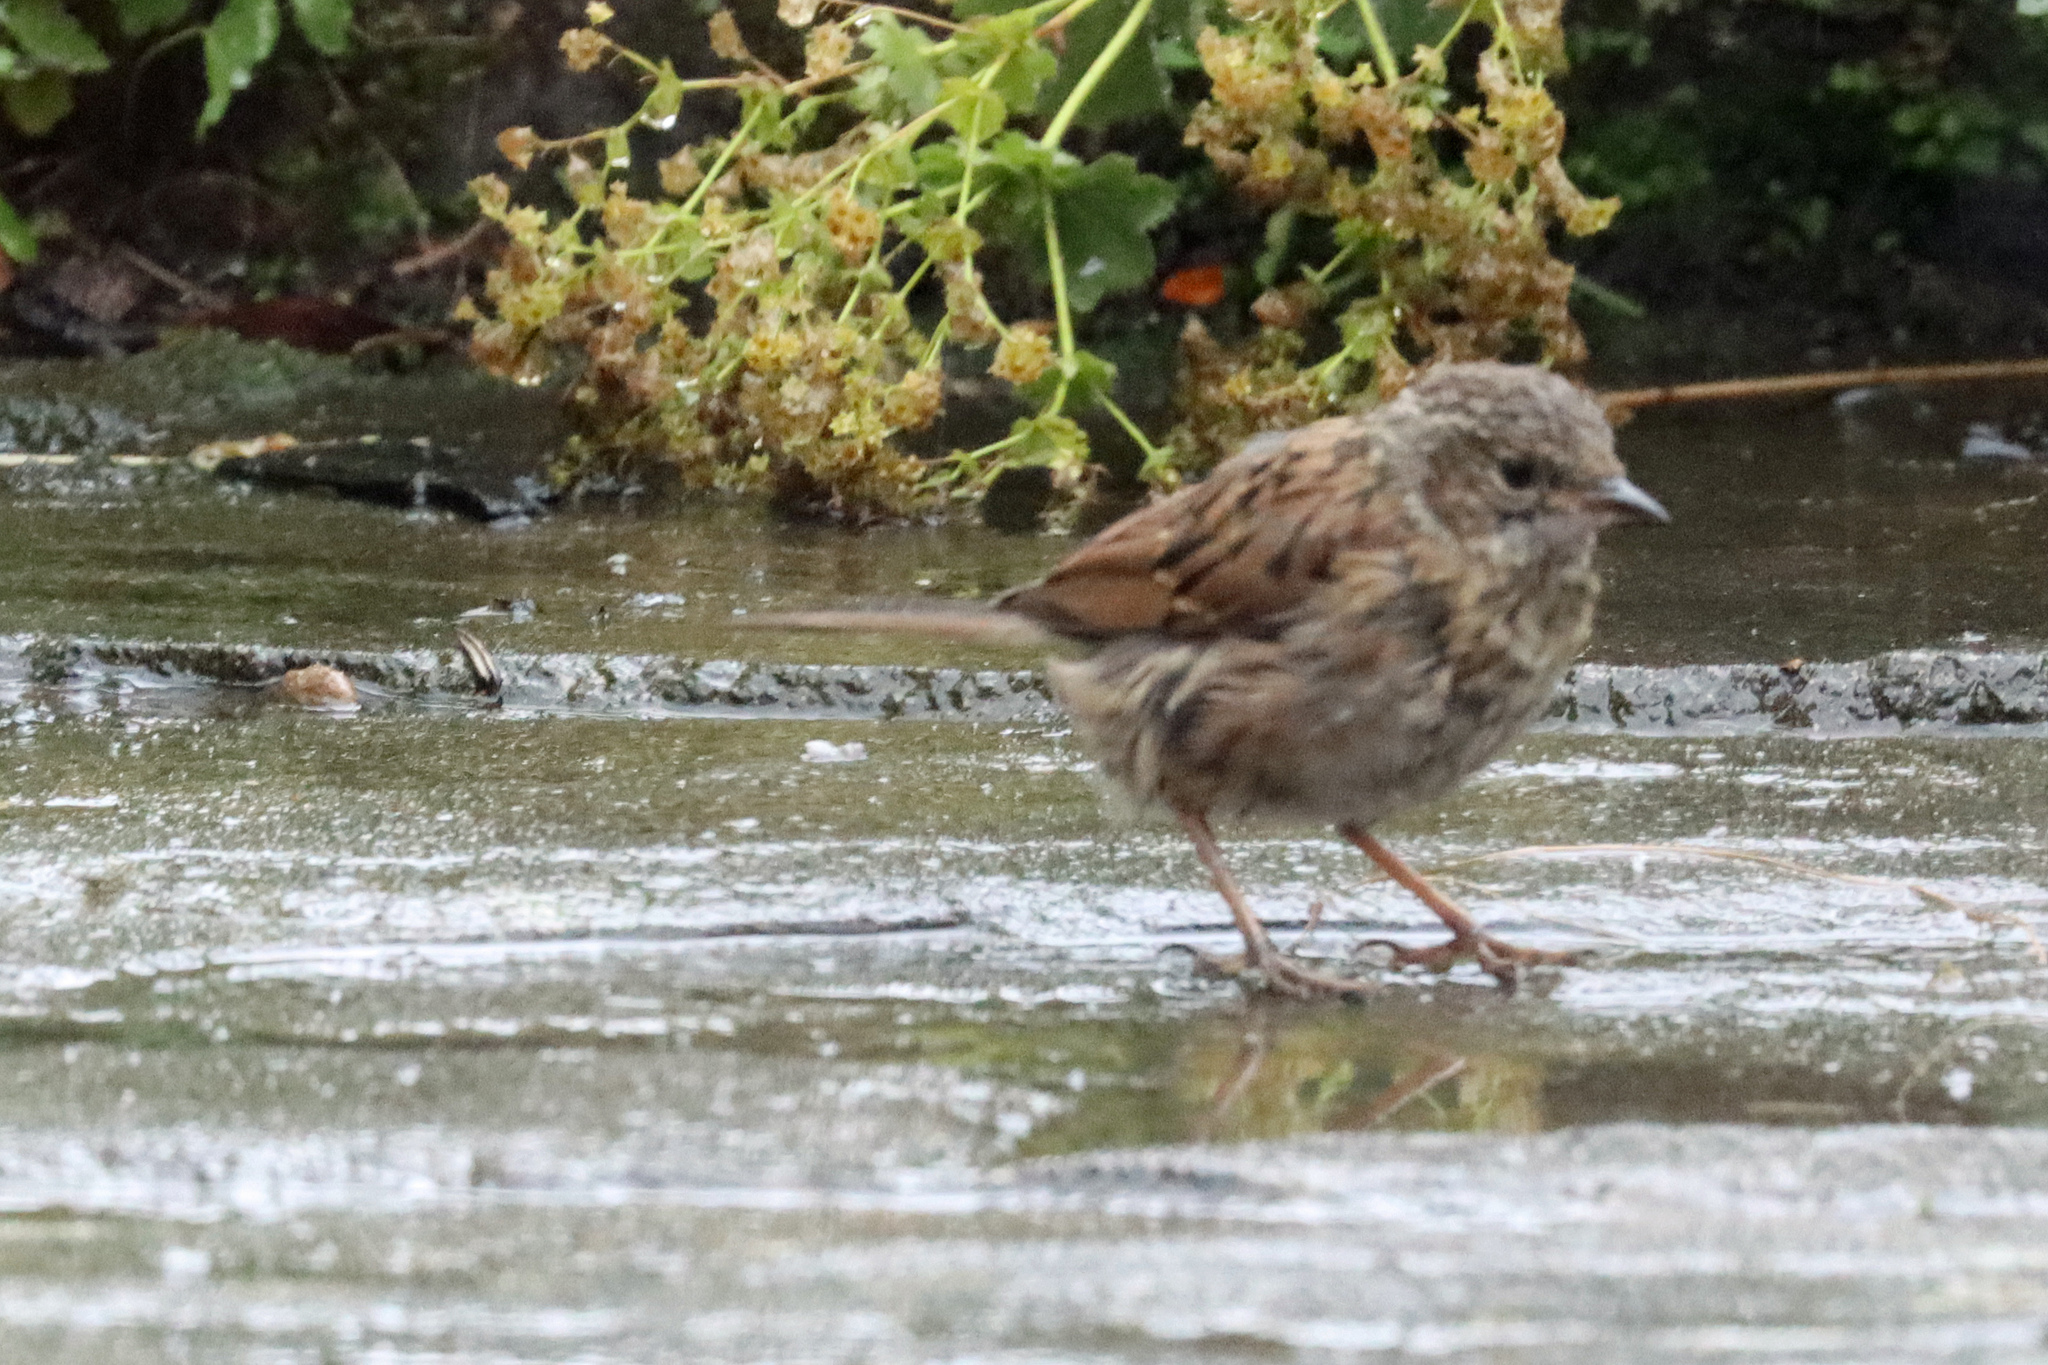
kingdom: Animalia
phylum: Chordata
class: Aves
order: Passeriformes
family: Prunellidae
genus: Prunella
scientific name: Prunella modularis
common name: Dunnock
